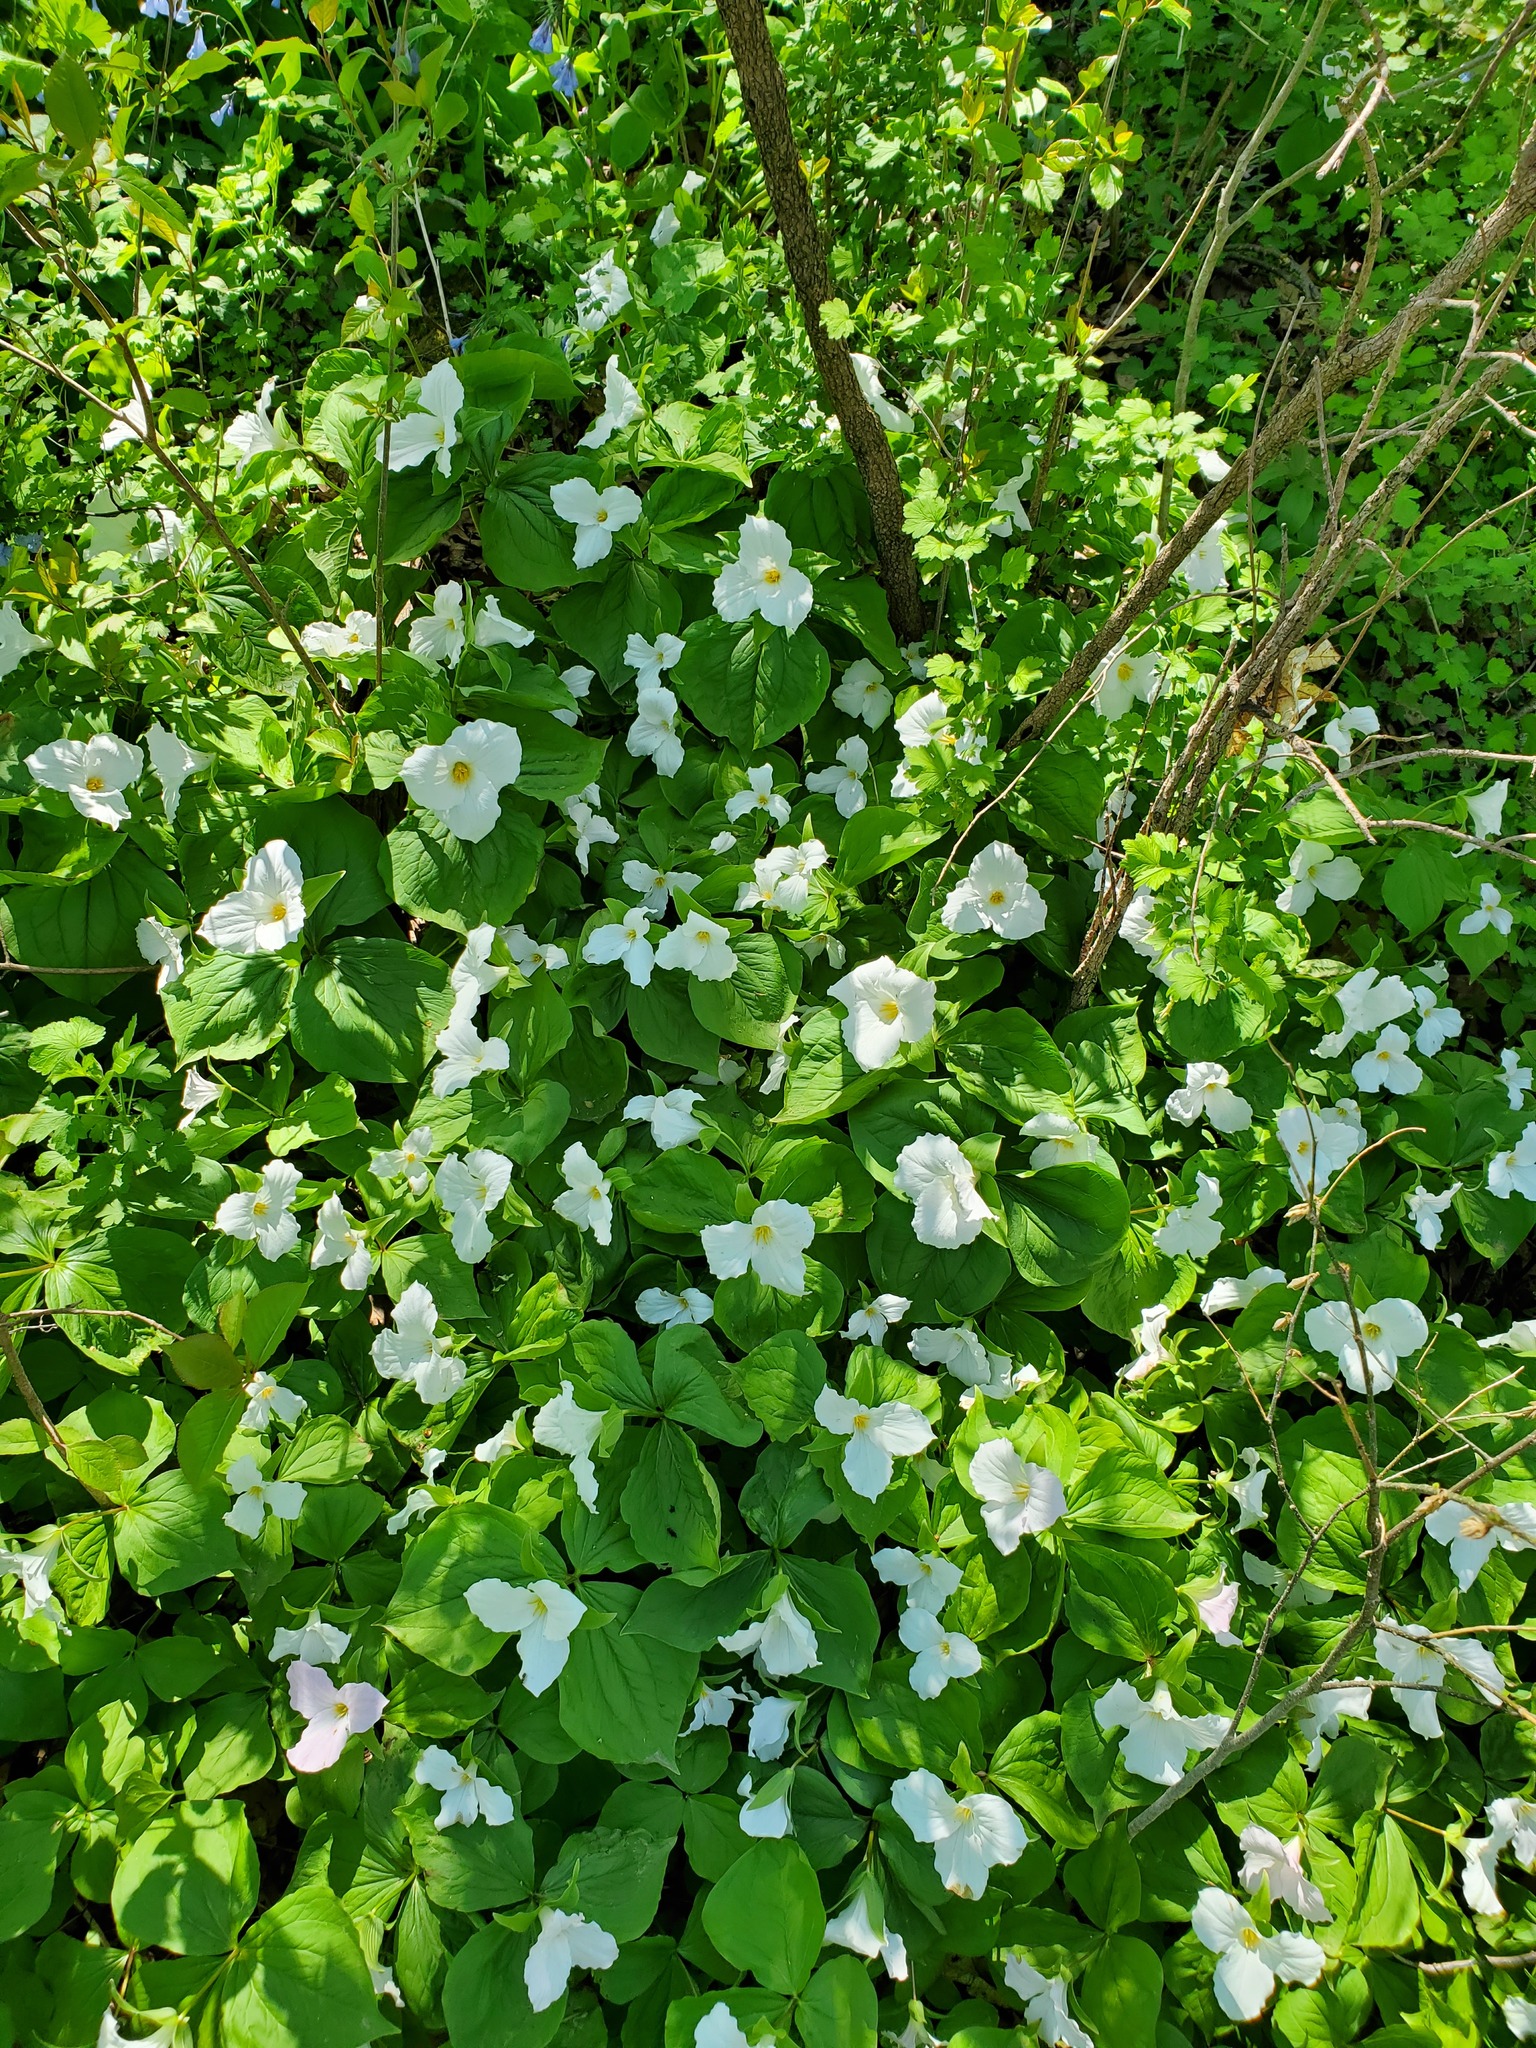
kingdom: Plantae
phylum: Tracheophyta
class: Liliopsida
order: Liliales
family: Melanthiaceae
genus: Trillium
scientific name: Trillium grandiflorum
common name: Great white trillium
